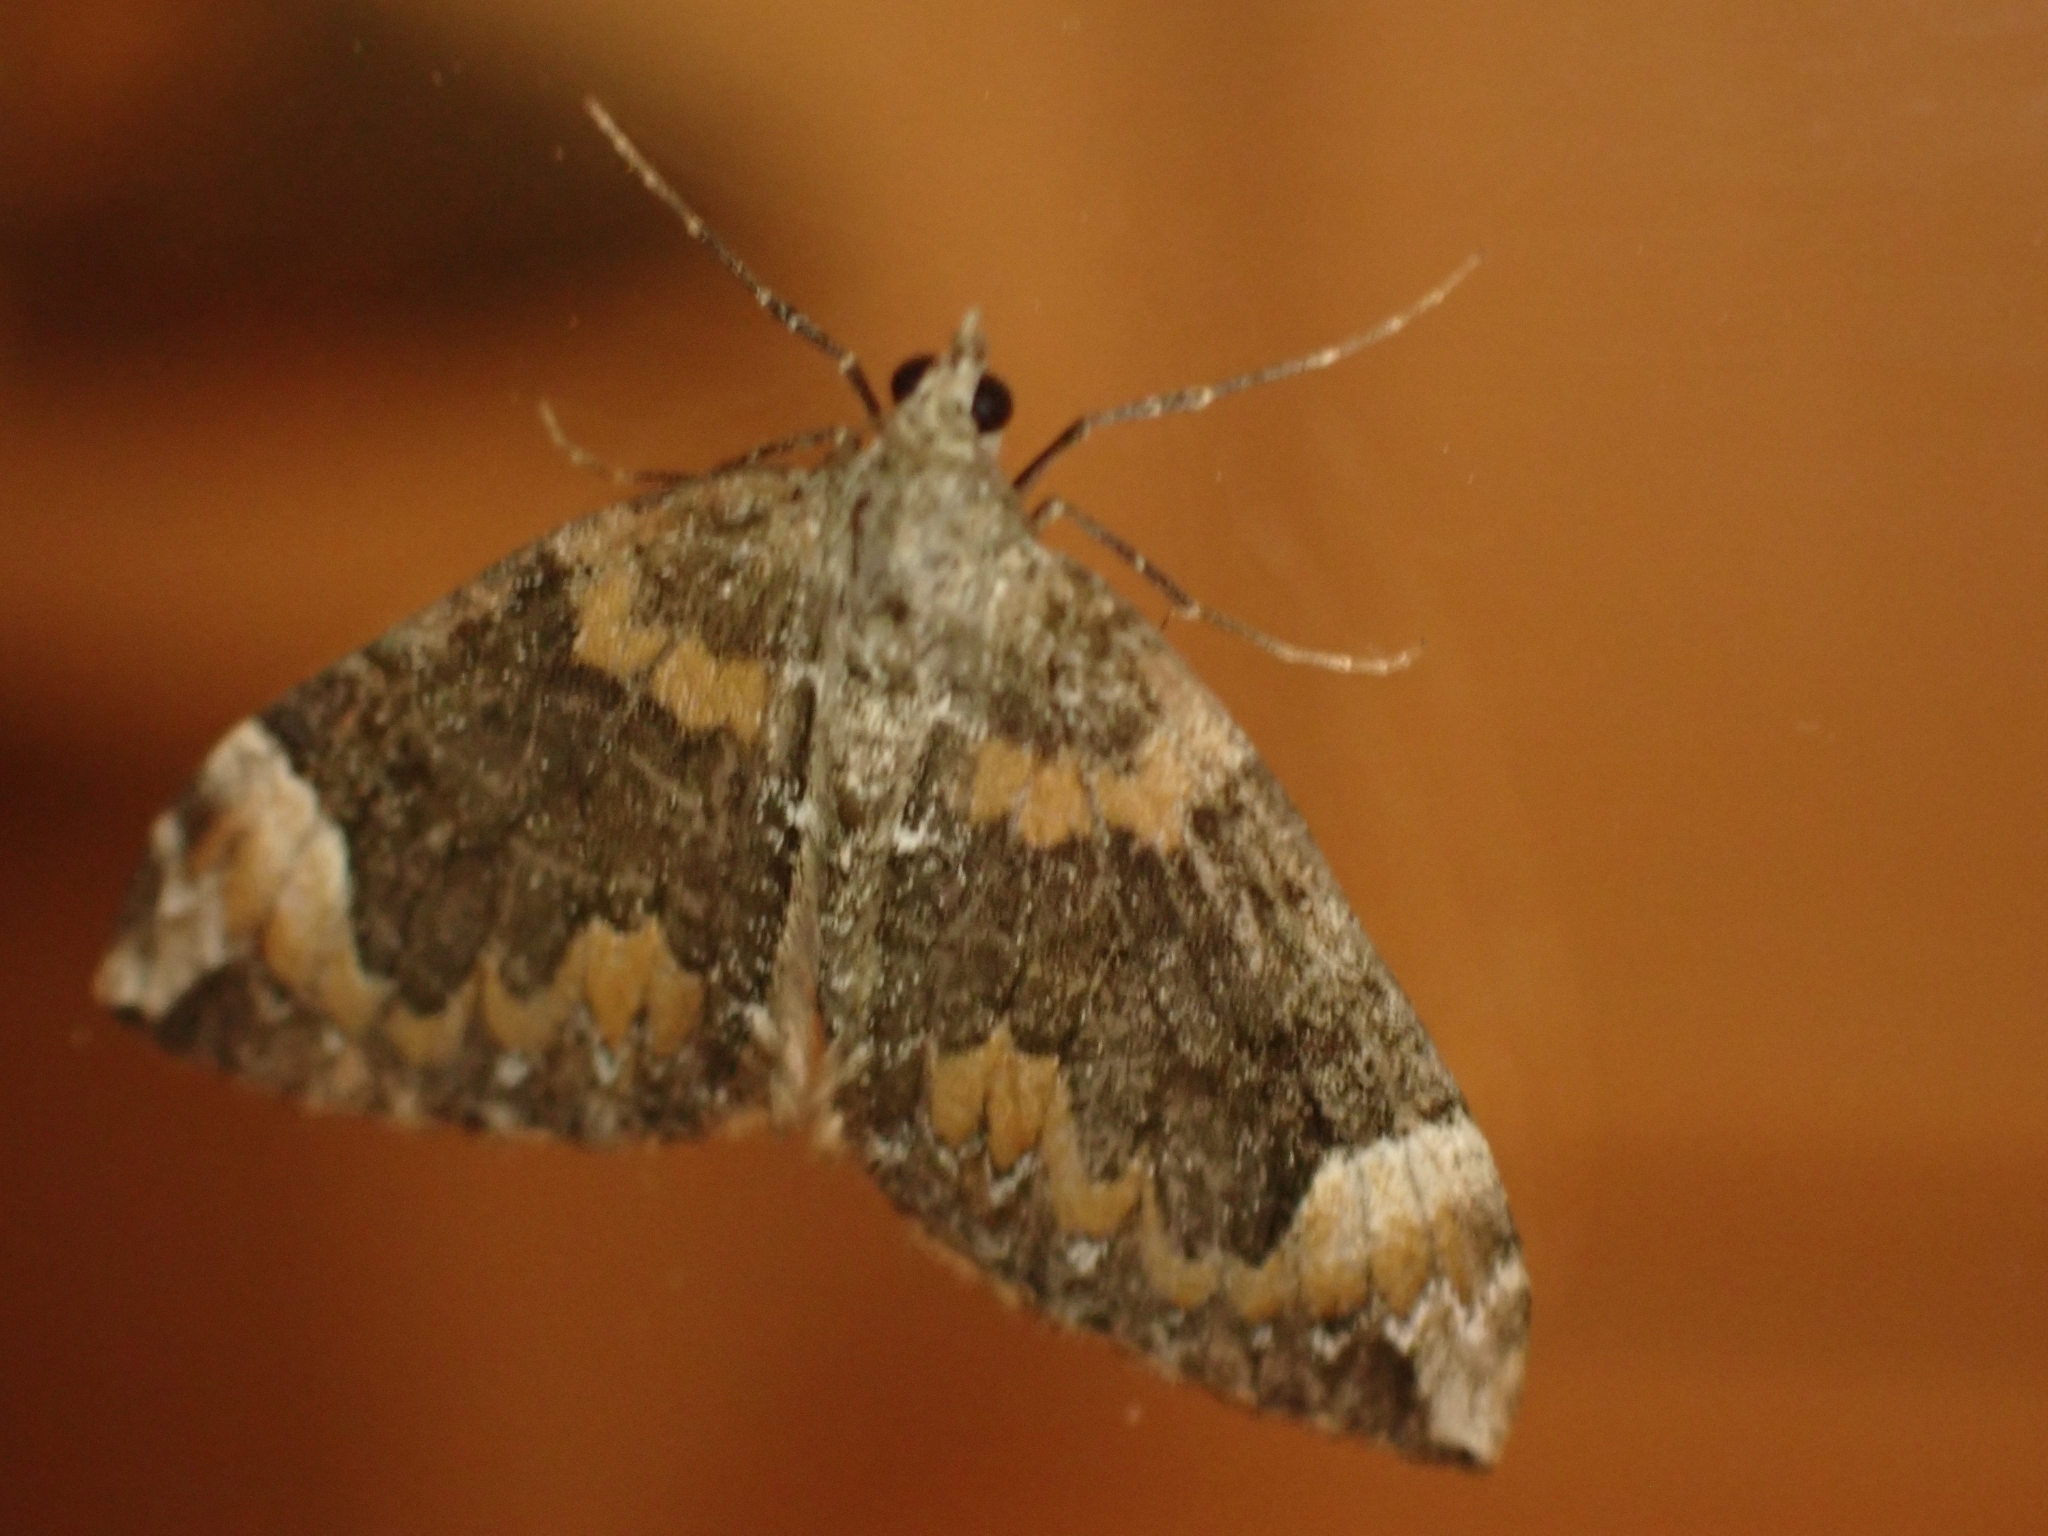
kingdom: Animalia
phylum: Arthropoda
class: Insecta
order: Lepidoptera
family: Geometridae
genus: Dysstroma
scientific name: Dysstroma citrata
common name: Dark marbled carpet
